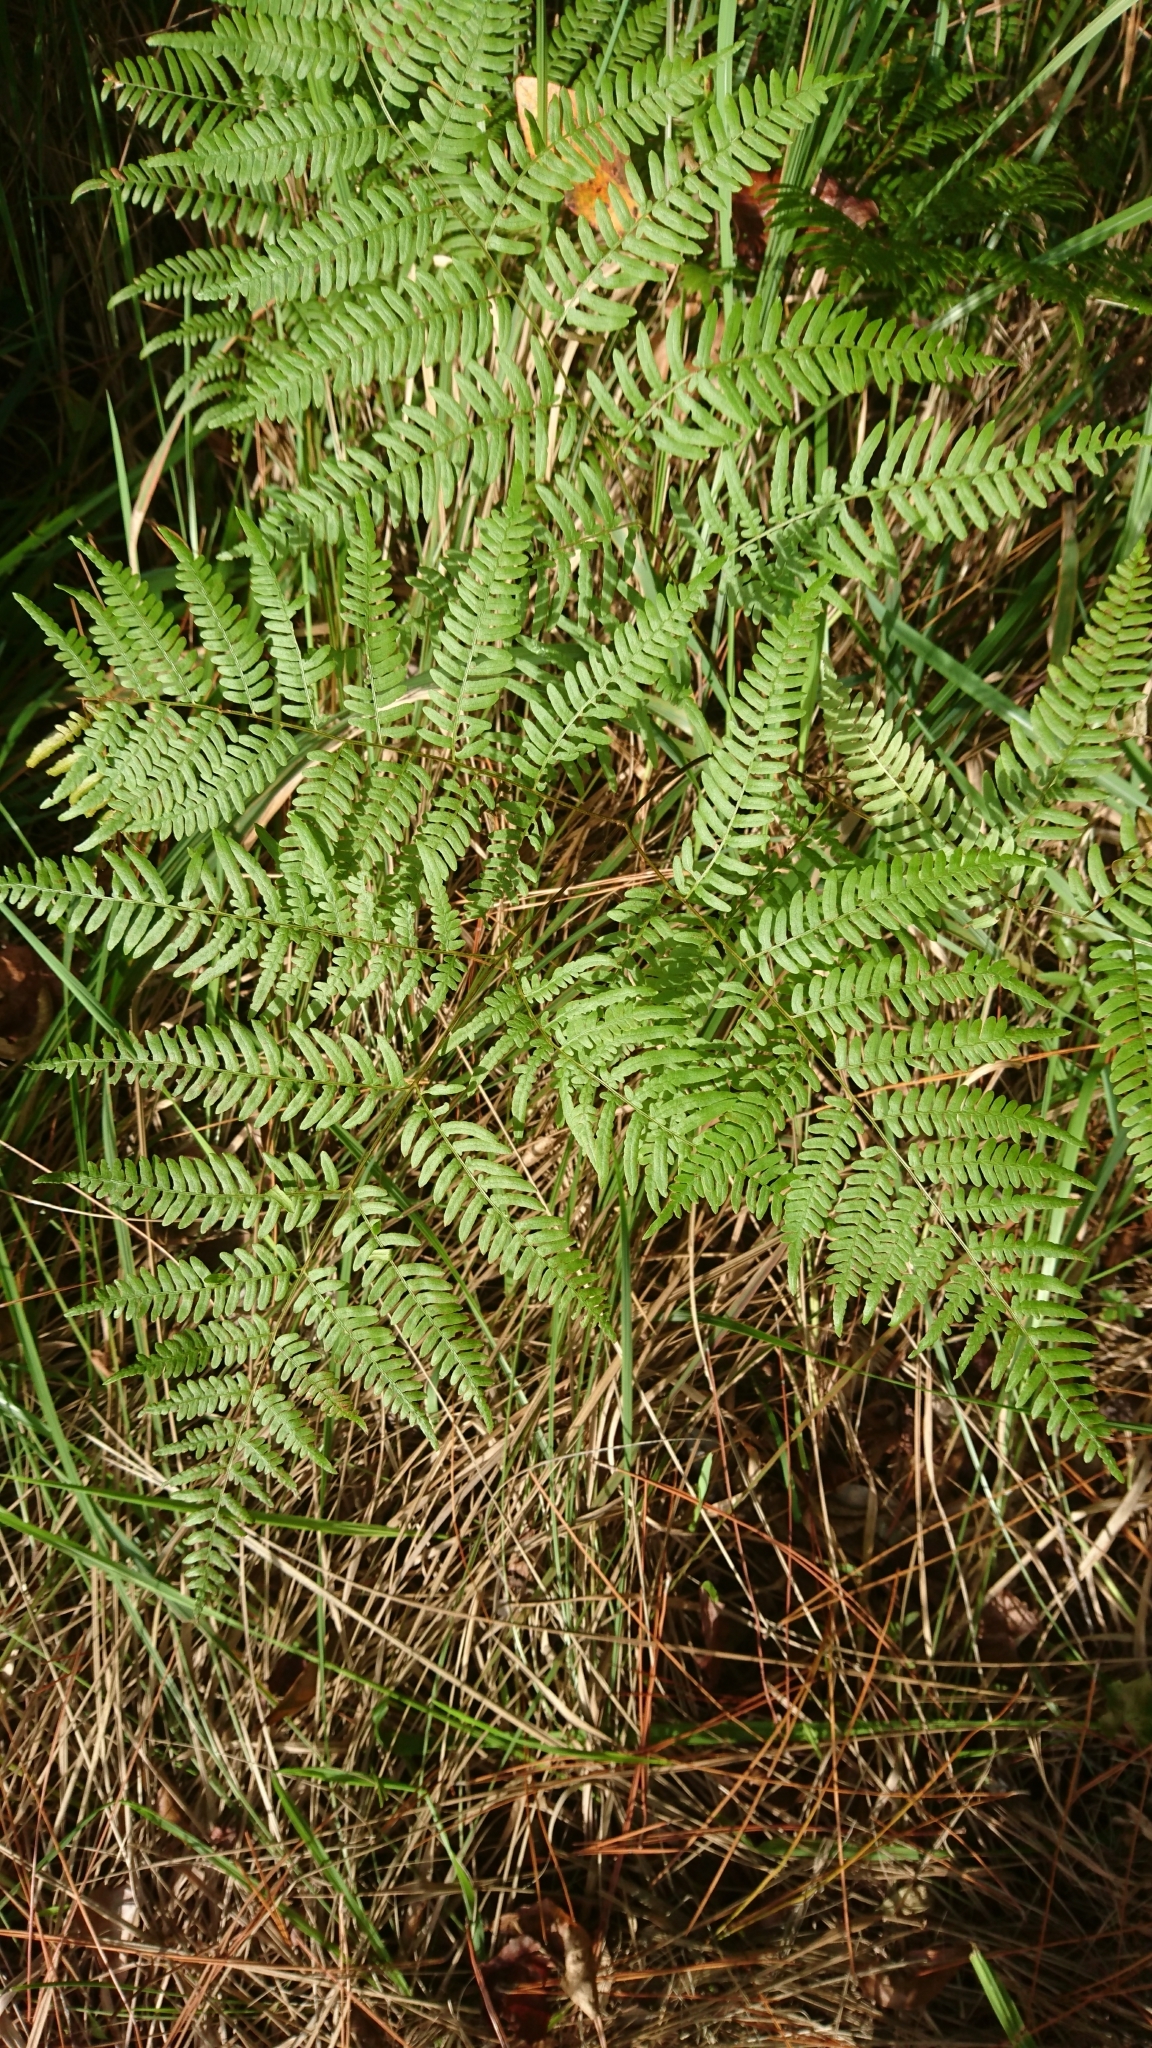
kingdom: Plantae
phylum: Tracheophyta
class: Polypodiopsida
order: Polypodiales
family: Dennstaedtiaceae
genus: Pteridium
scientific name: Pteridium aquilinum
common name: Bracken
